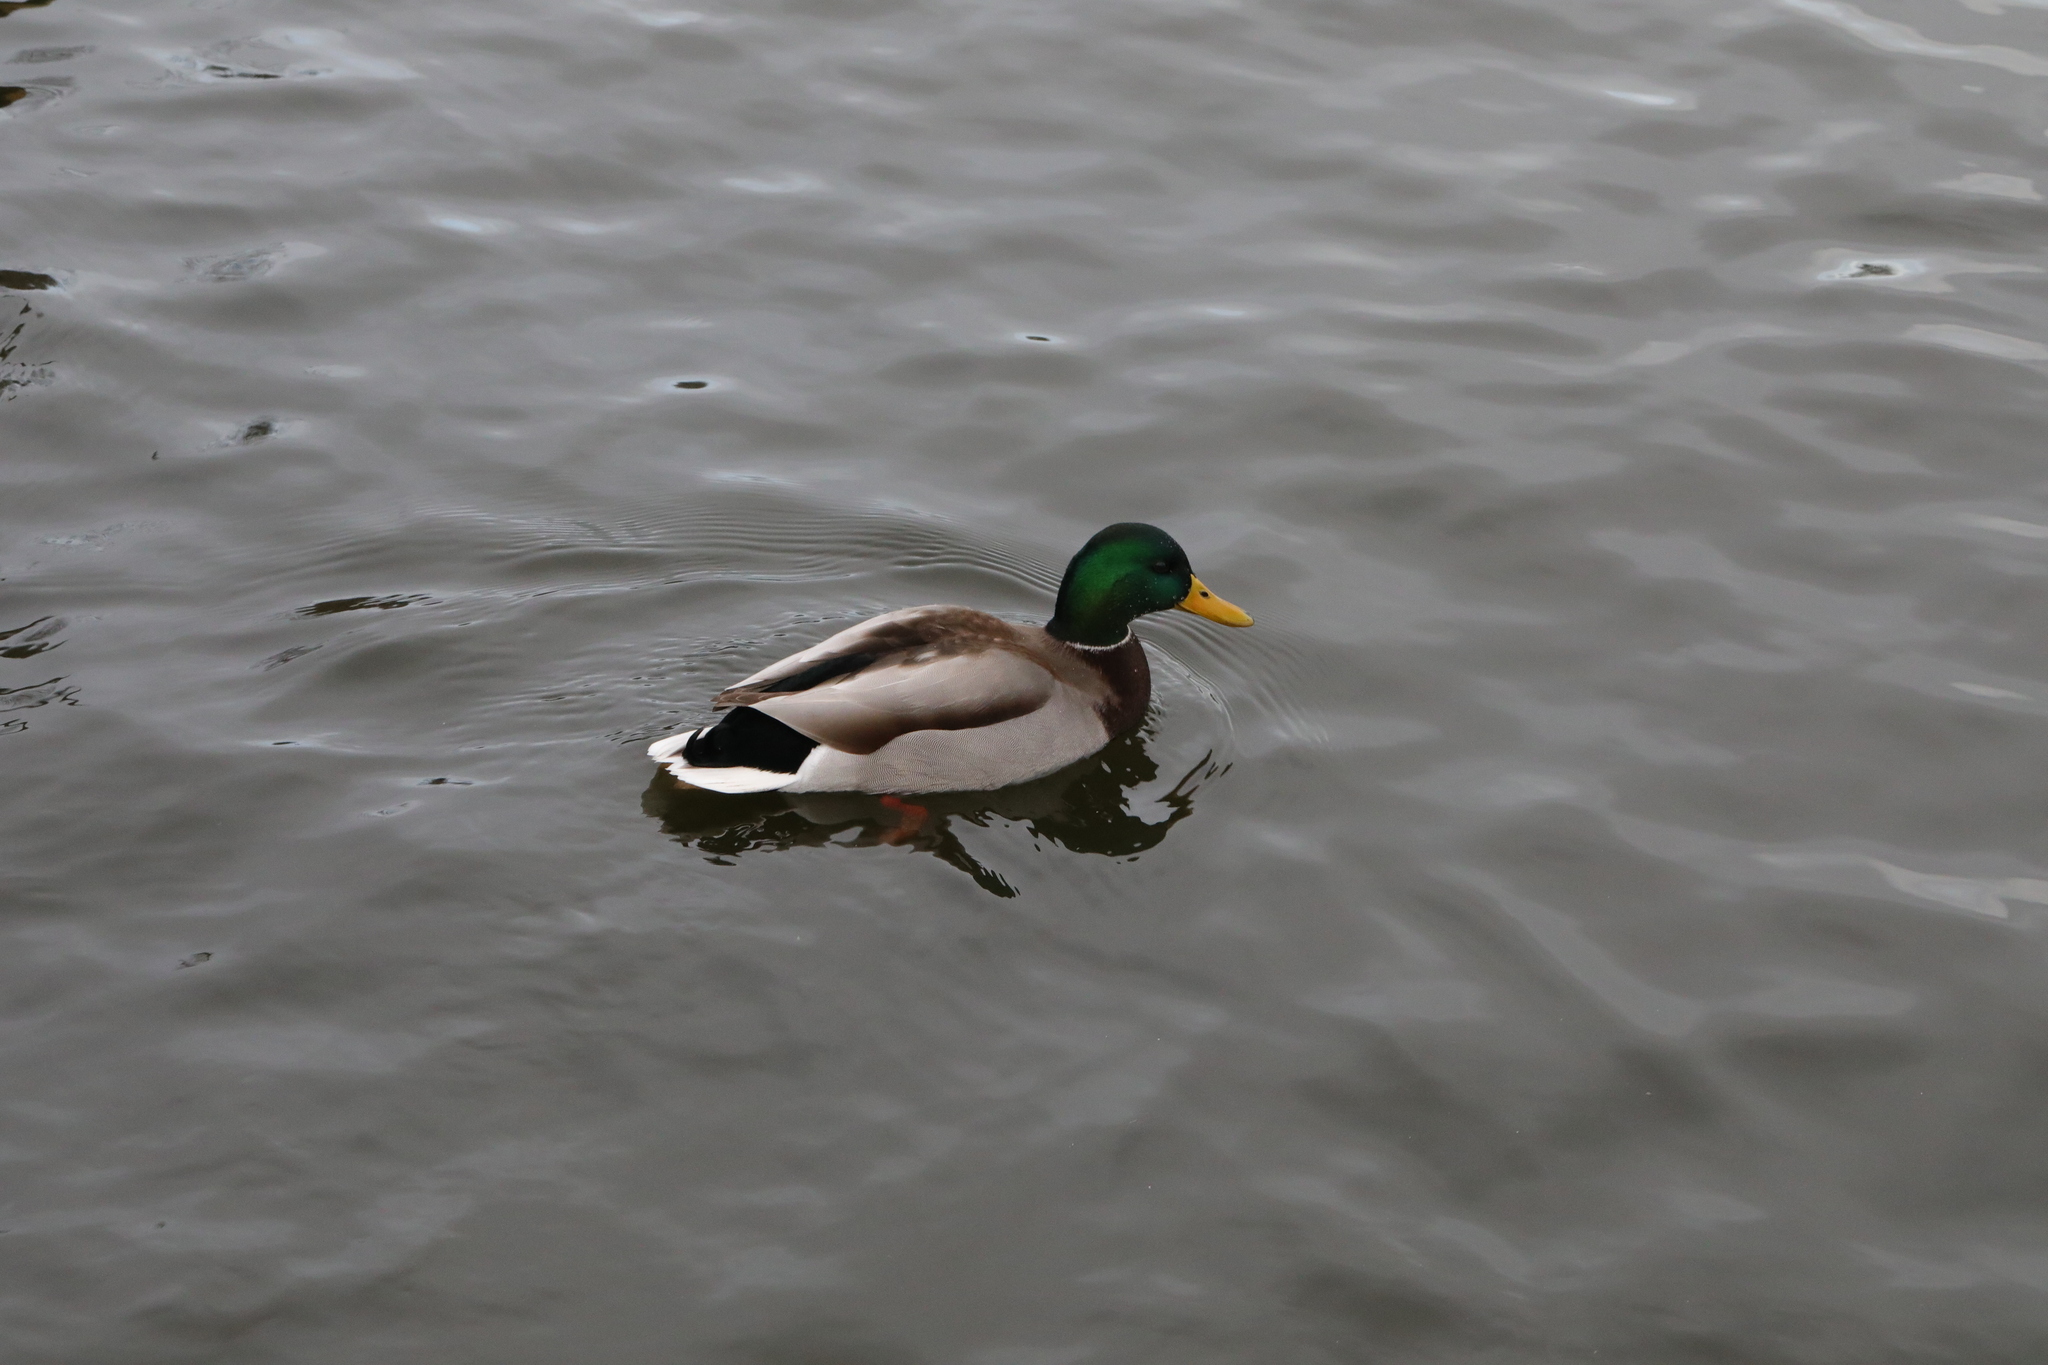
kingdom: Animalia
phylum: Chordata
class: Aves
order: Anseriformes
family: Anatidae
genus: Anas
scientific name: Anas platyrhynchos
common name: Mallard
